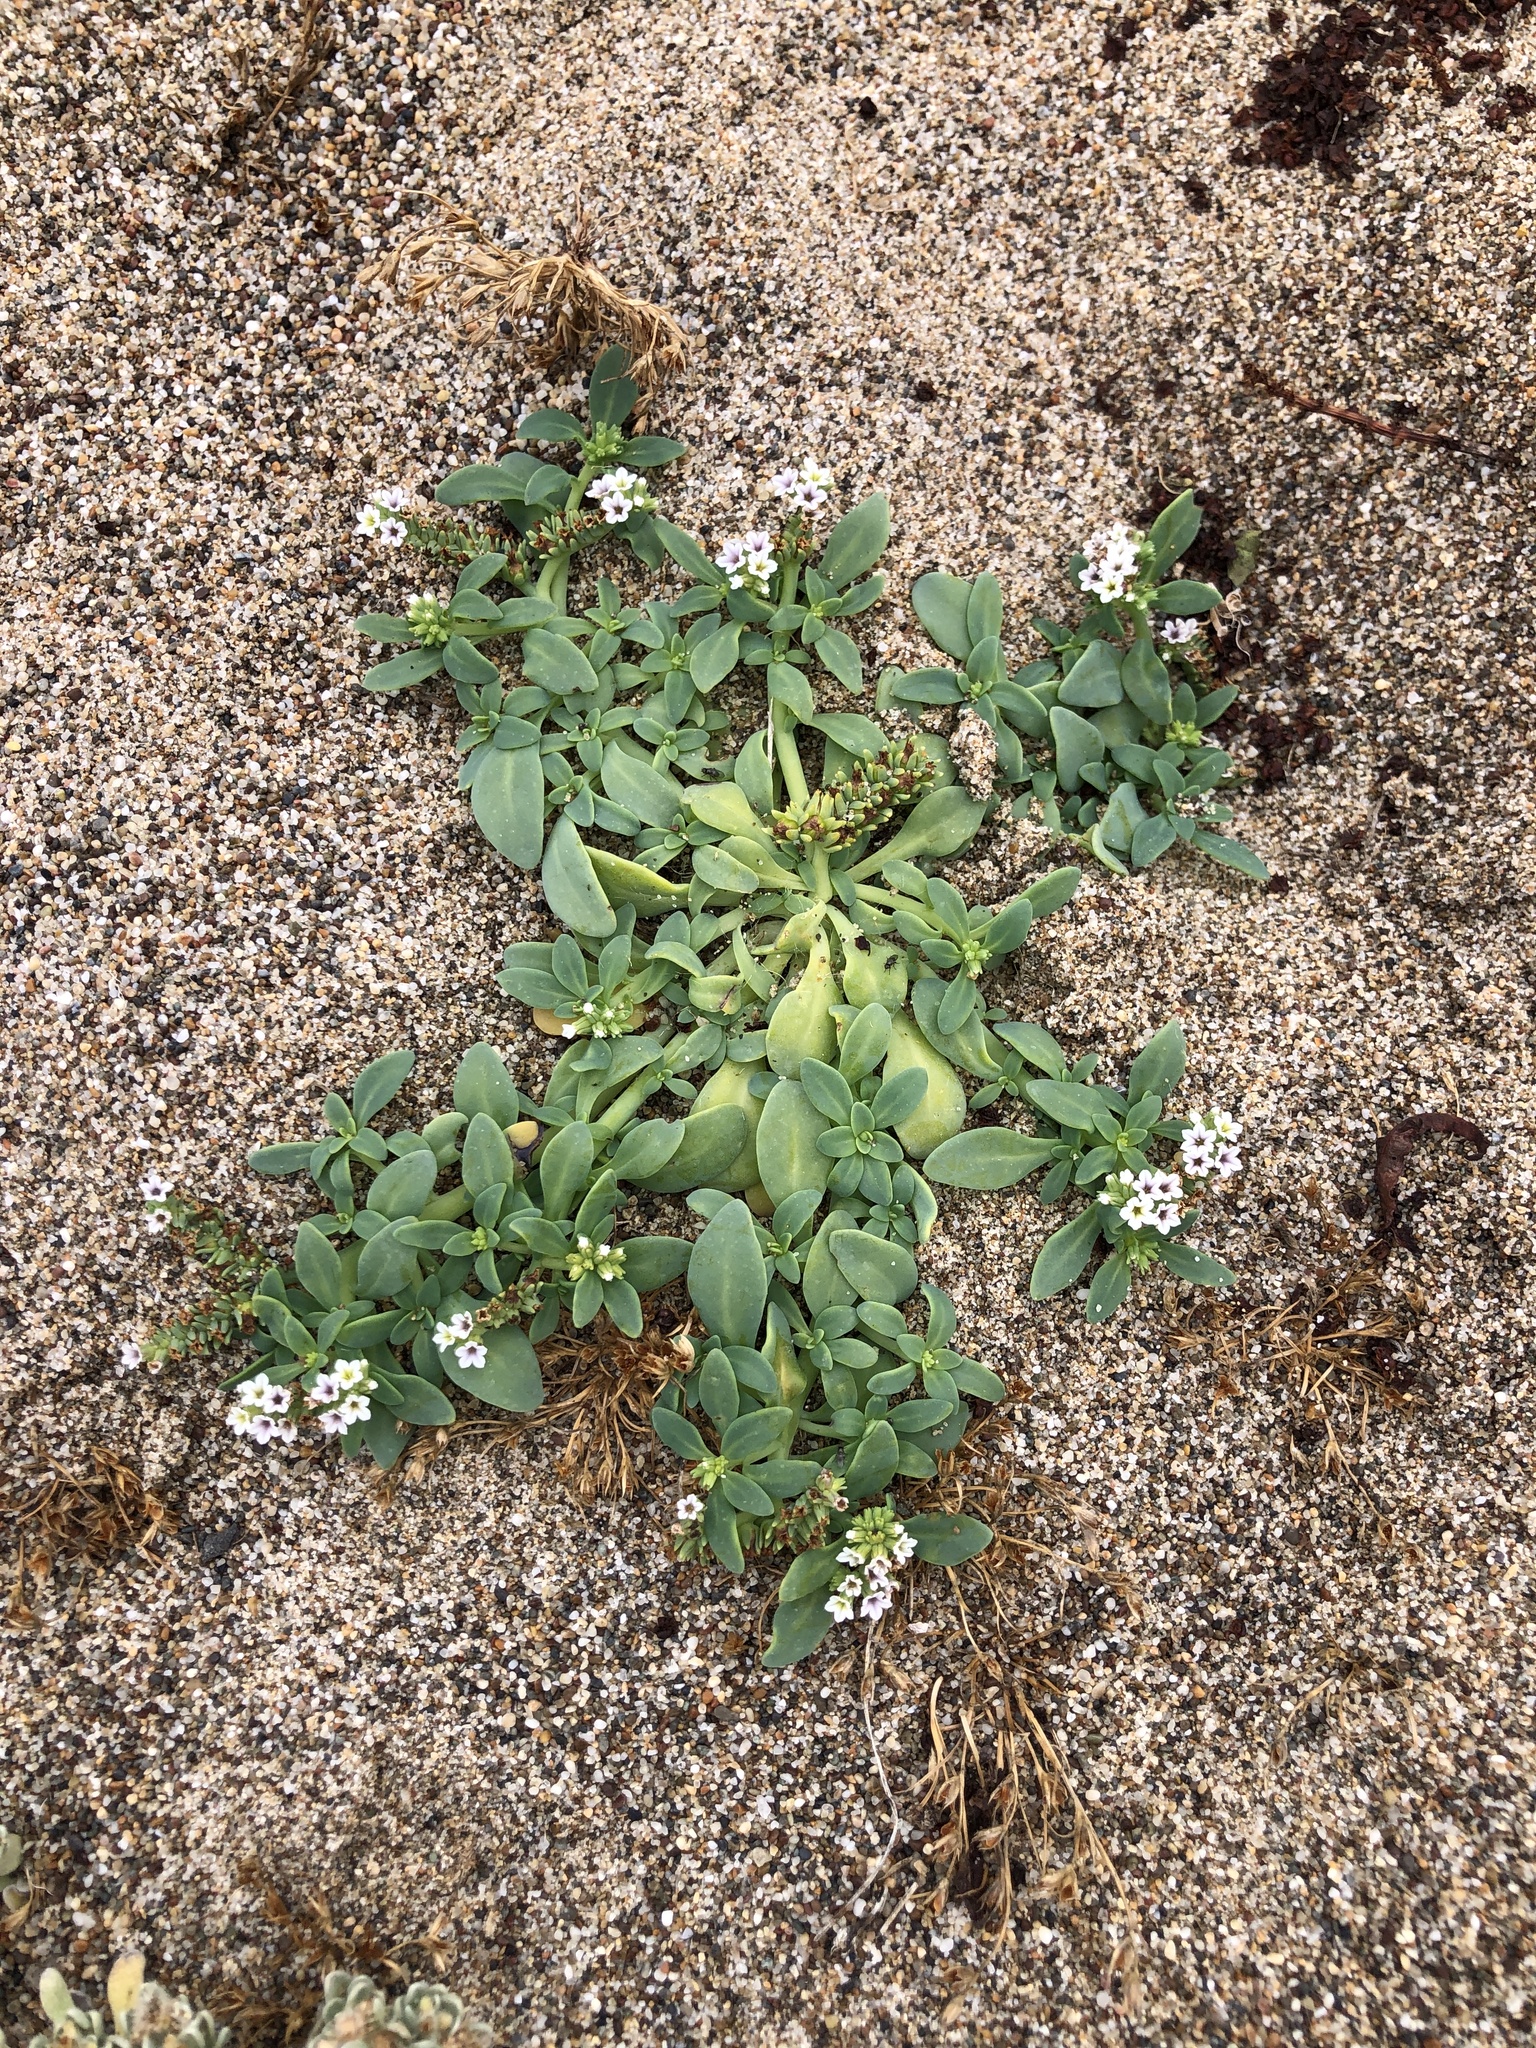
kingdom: Plantae
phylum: Tracheophyta
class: Magnoliopsida
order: Boraginales
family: Heliotropiaceae
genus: Heliotropium
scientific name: Heliotropium curassavicum
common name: Seaside heliotrope
